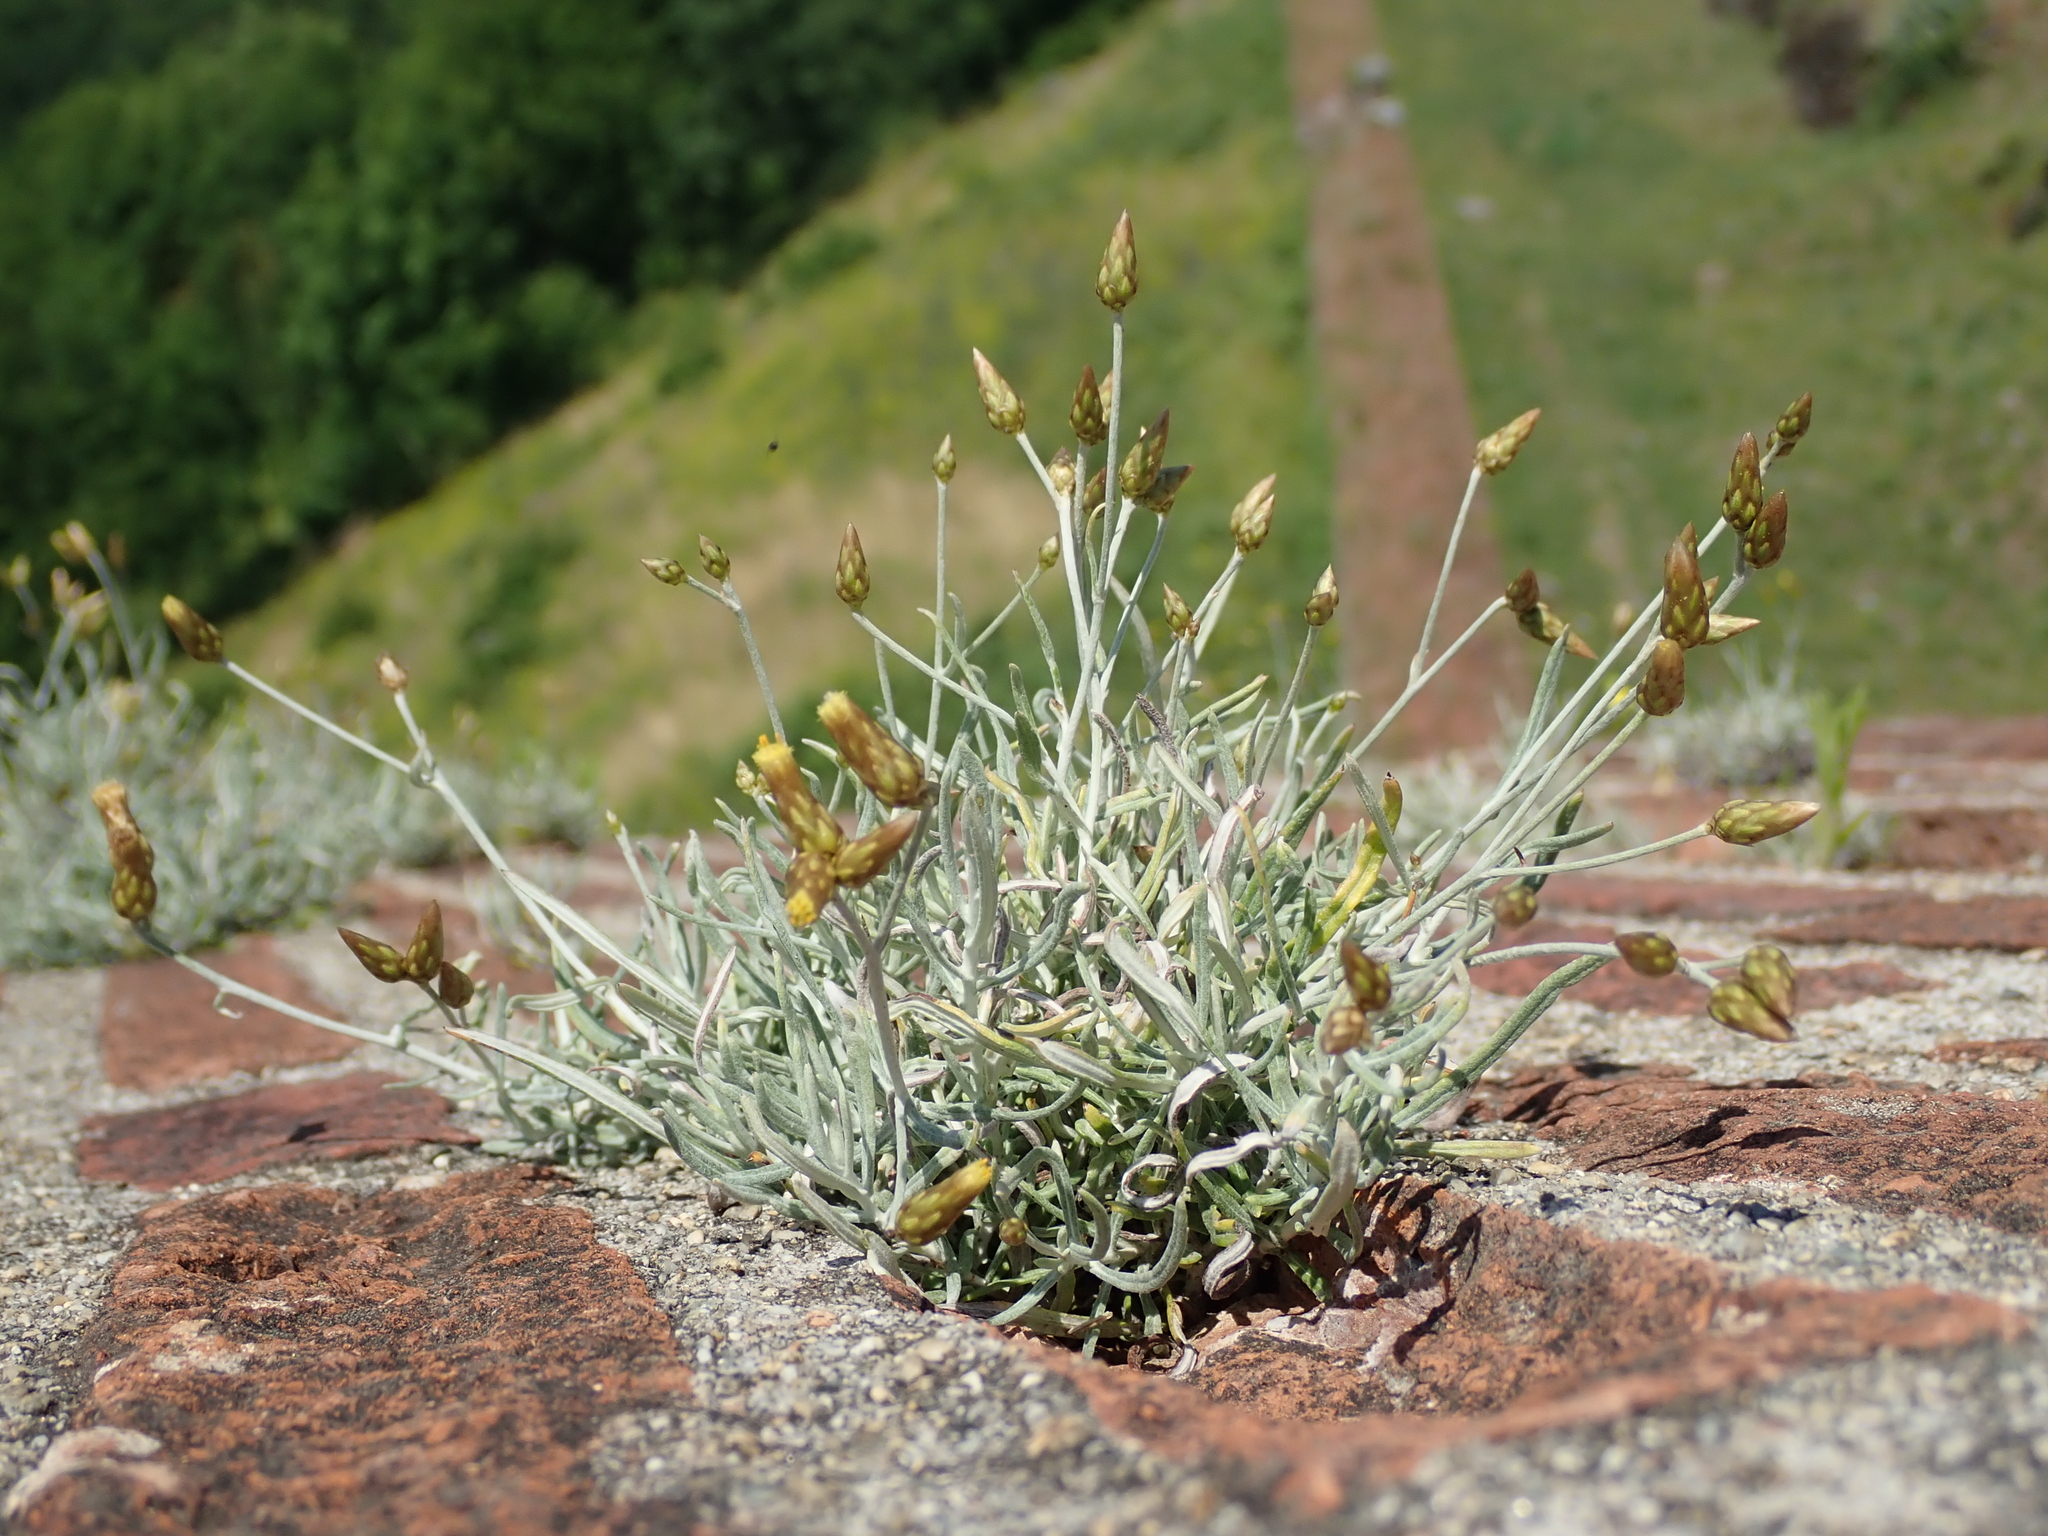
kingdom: Plantae
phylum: Tracheophyta
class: Magnoliopsida
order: Asterales
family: Asteraceae
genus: Phagnalon
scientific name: Phagnalon sordidum
